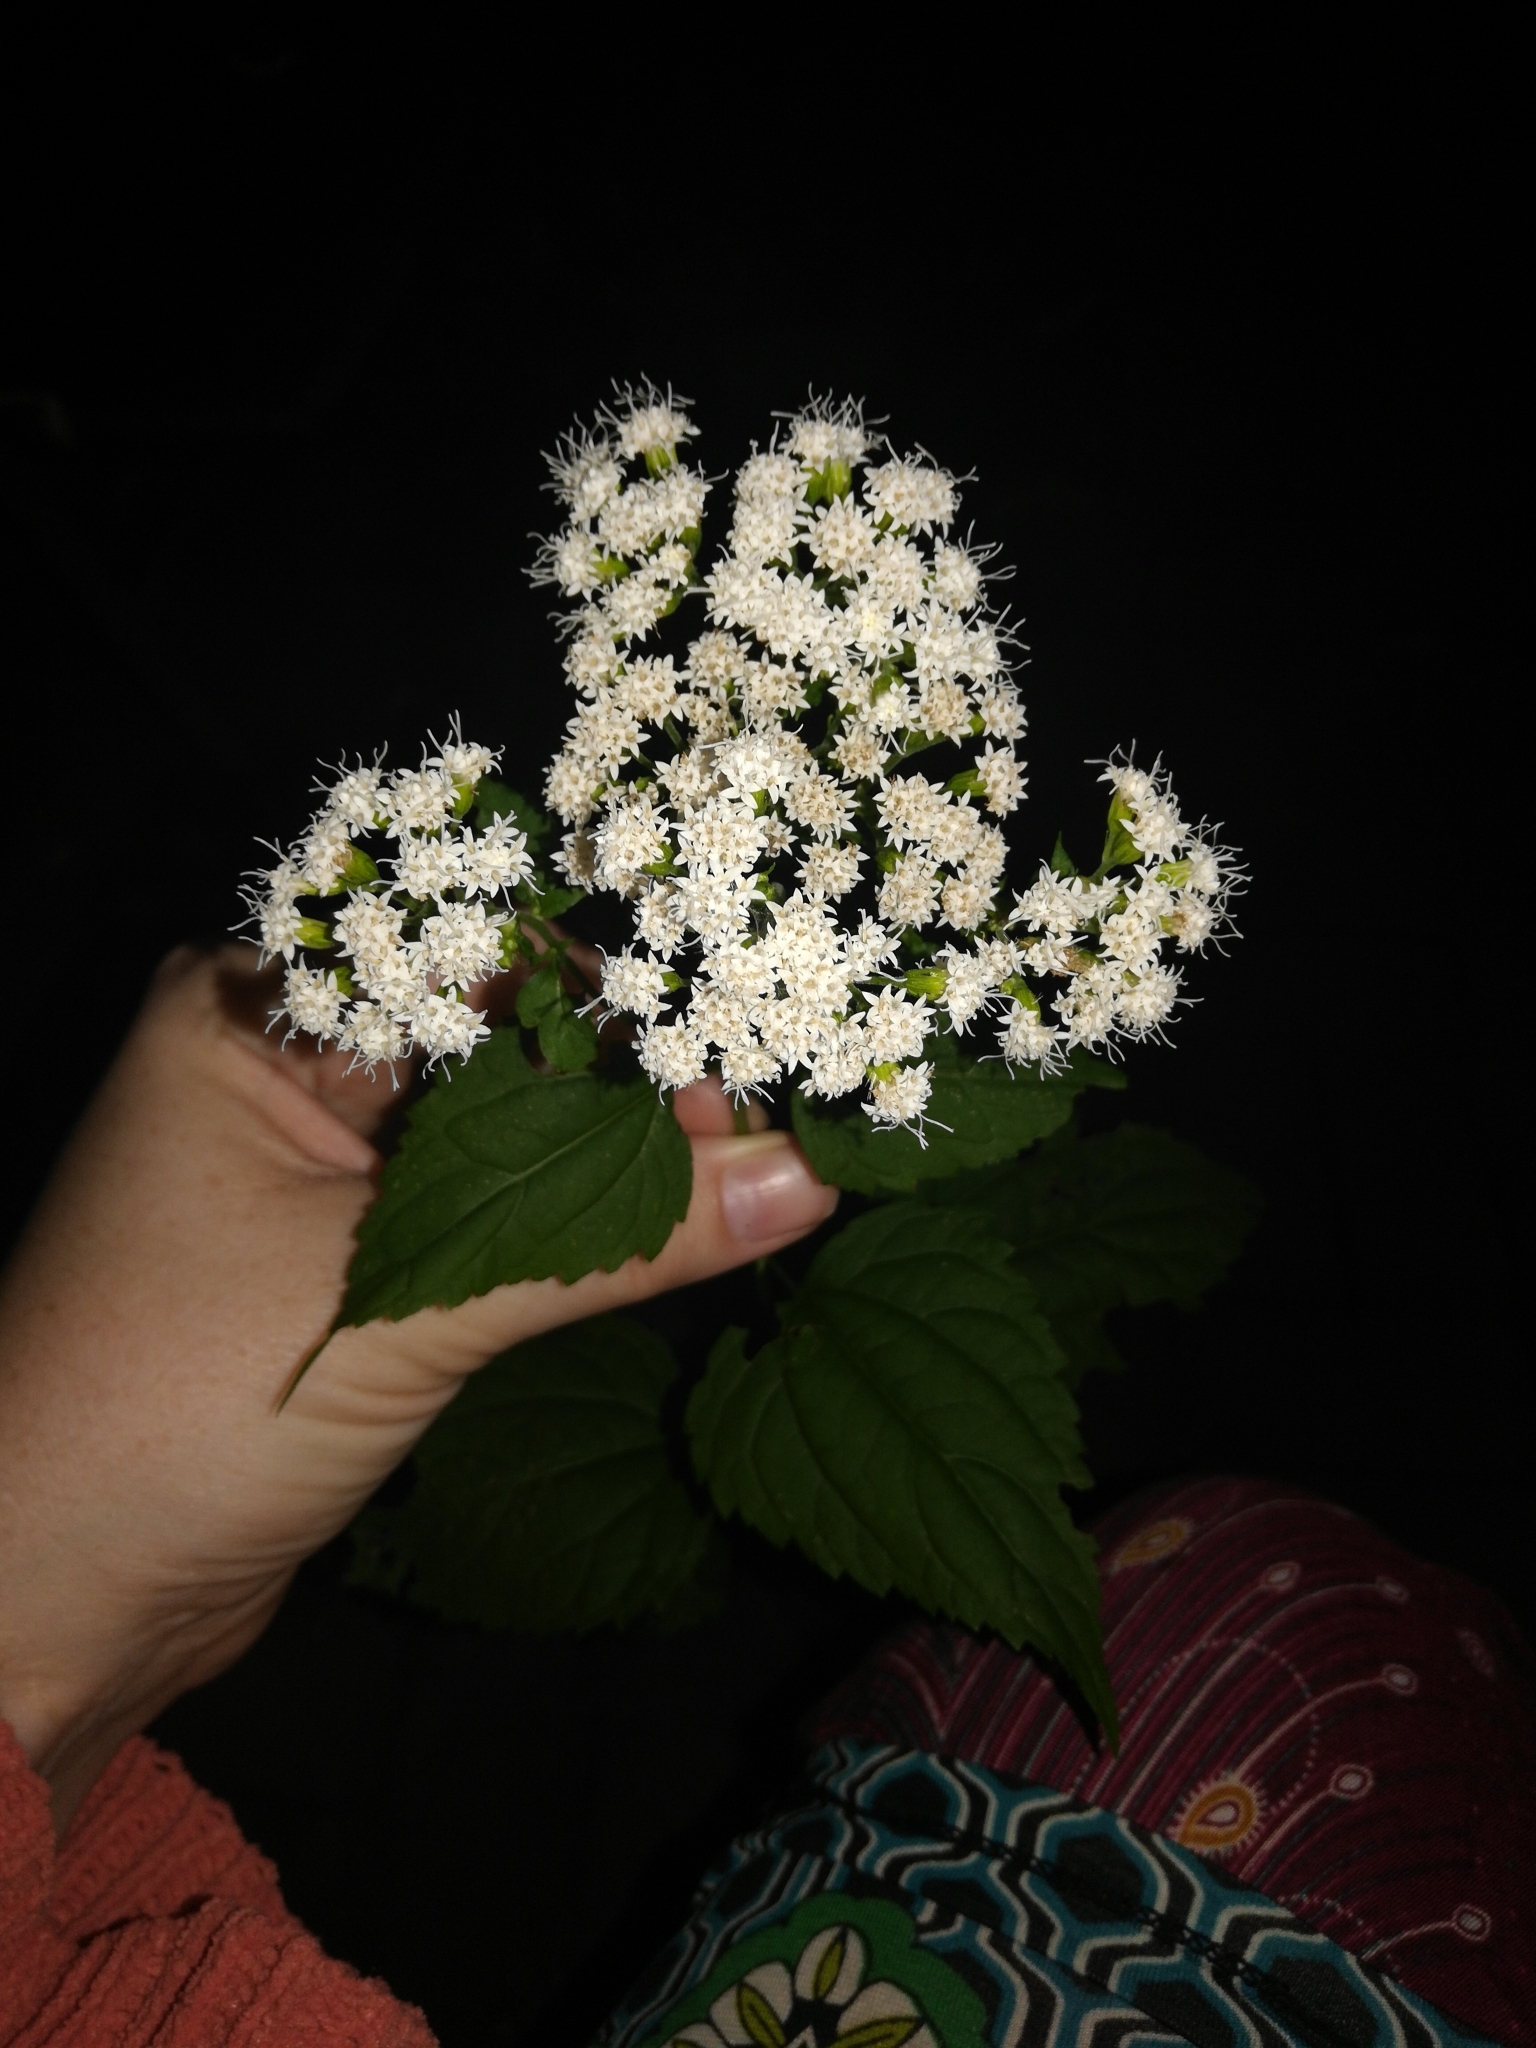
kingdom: Plantae
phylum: Tracheophyta
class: Magnoliopsida
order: Asterales
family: Asteraceae
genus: Ageratina
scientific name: Ageratina altissima
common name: White snakeroot
